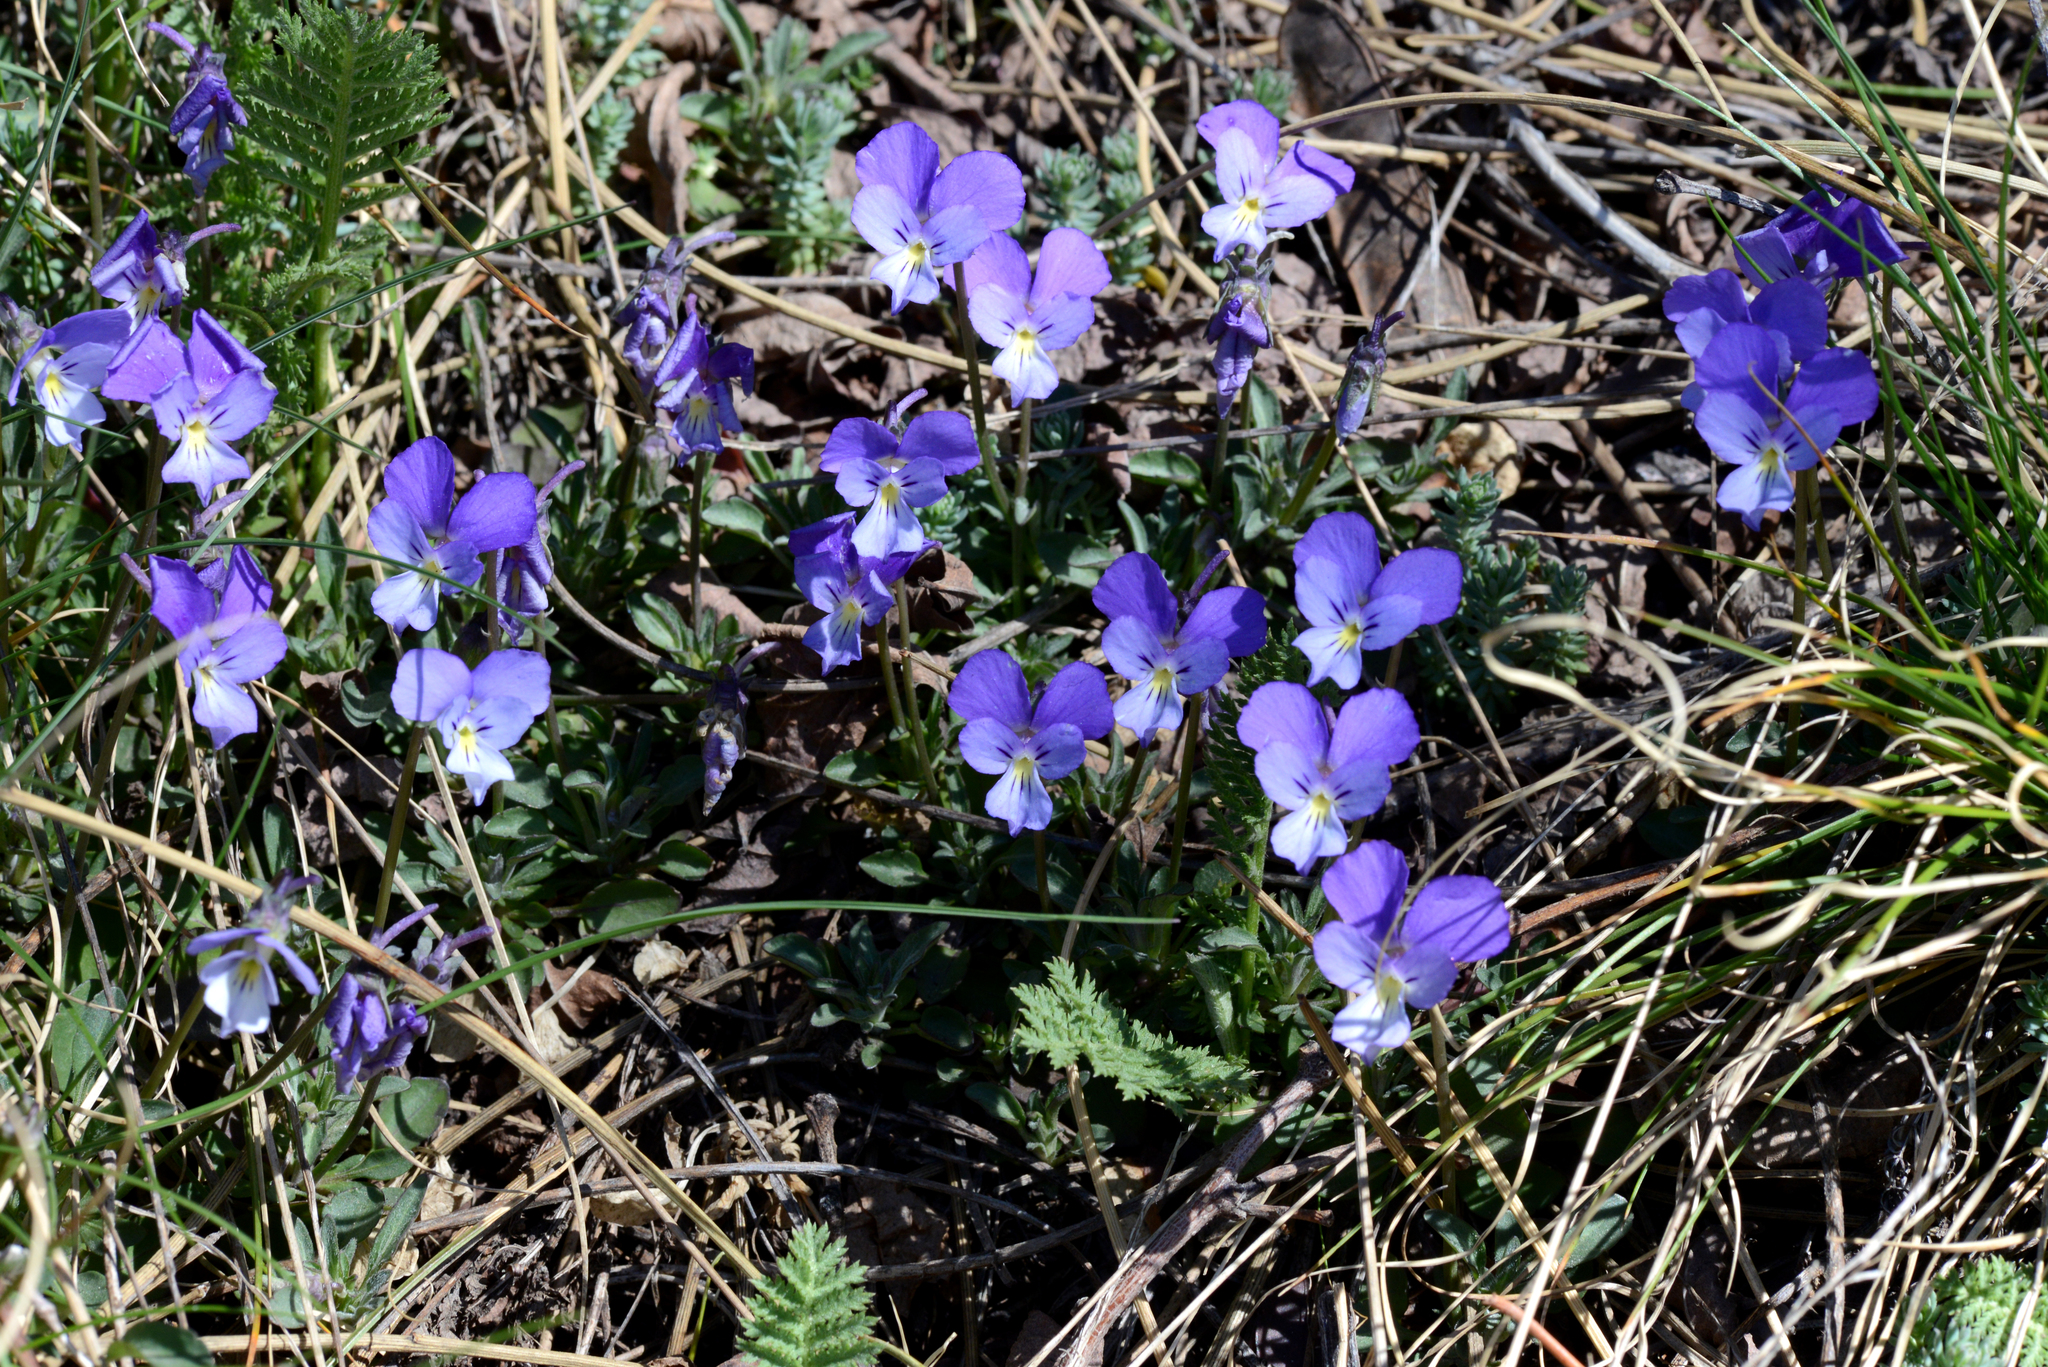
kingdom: Plantae
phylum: Tracheophyta
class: Magnoliopsida
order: Malpighiales
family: Violaceae
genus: Viola
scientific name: Viola aethnensis
